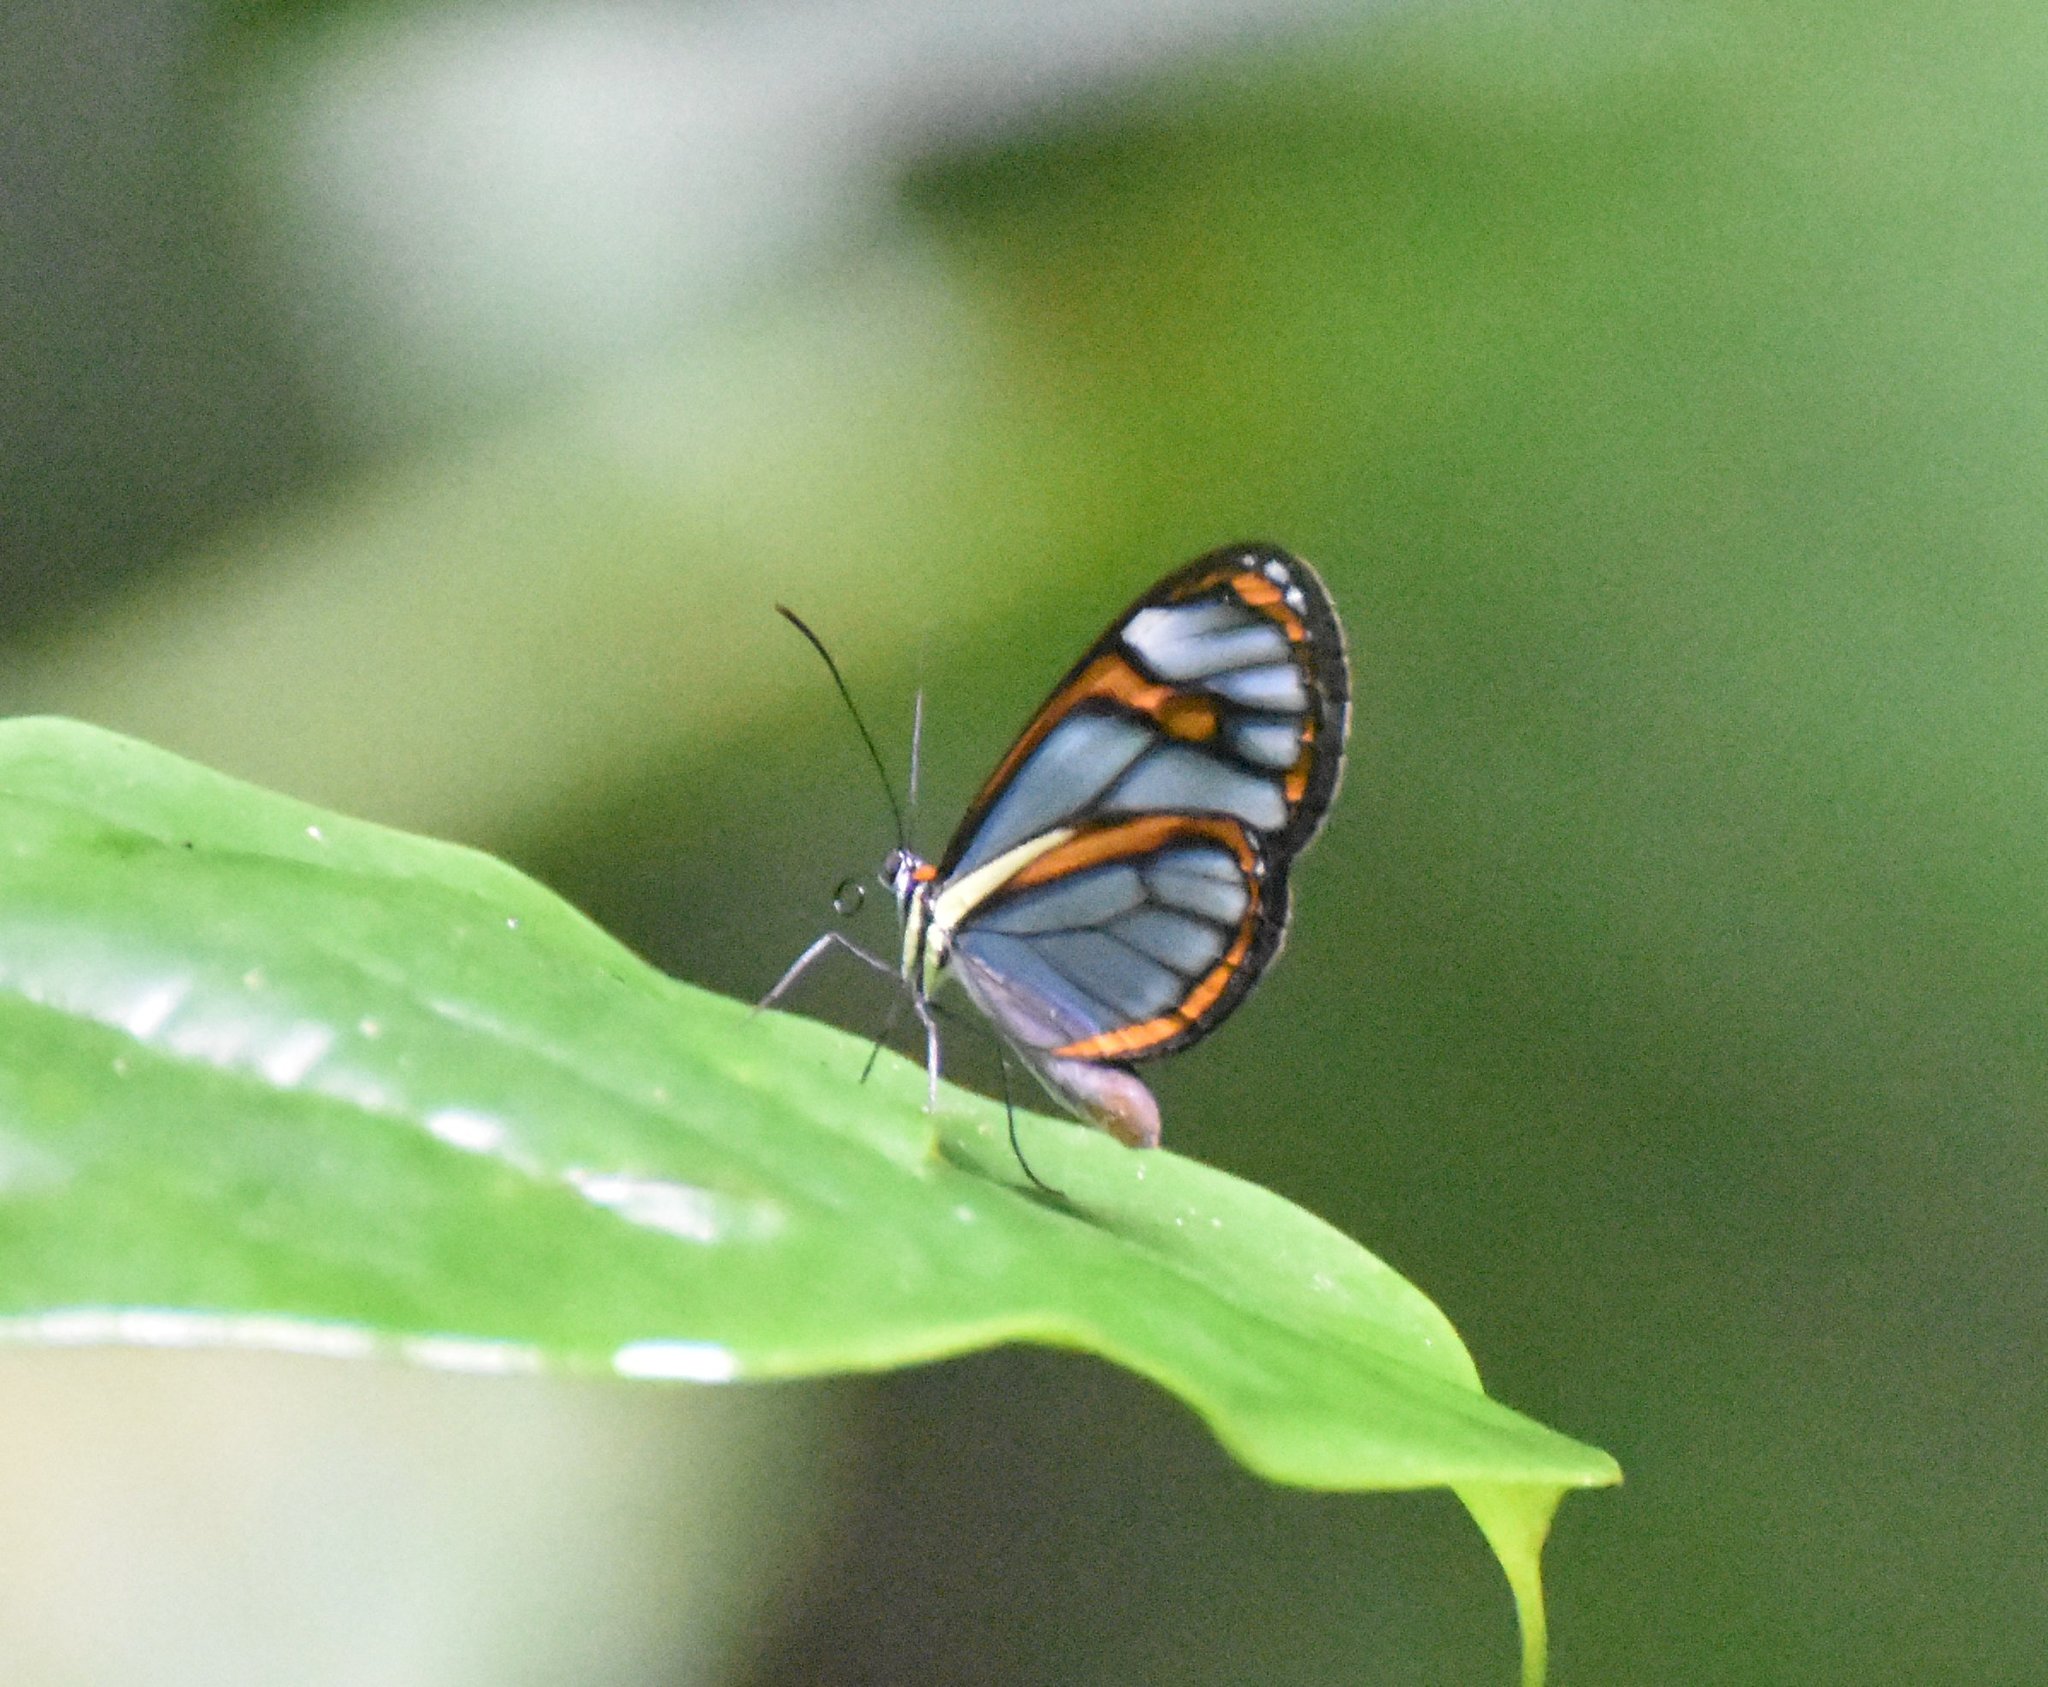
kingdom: Animalia
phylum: Arthropoda
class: Insecta
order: Lepidoptera
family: Nymphalidae
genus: Ithomia
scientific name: Ithomia agnosia
